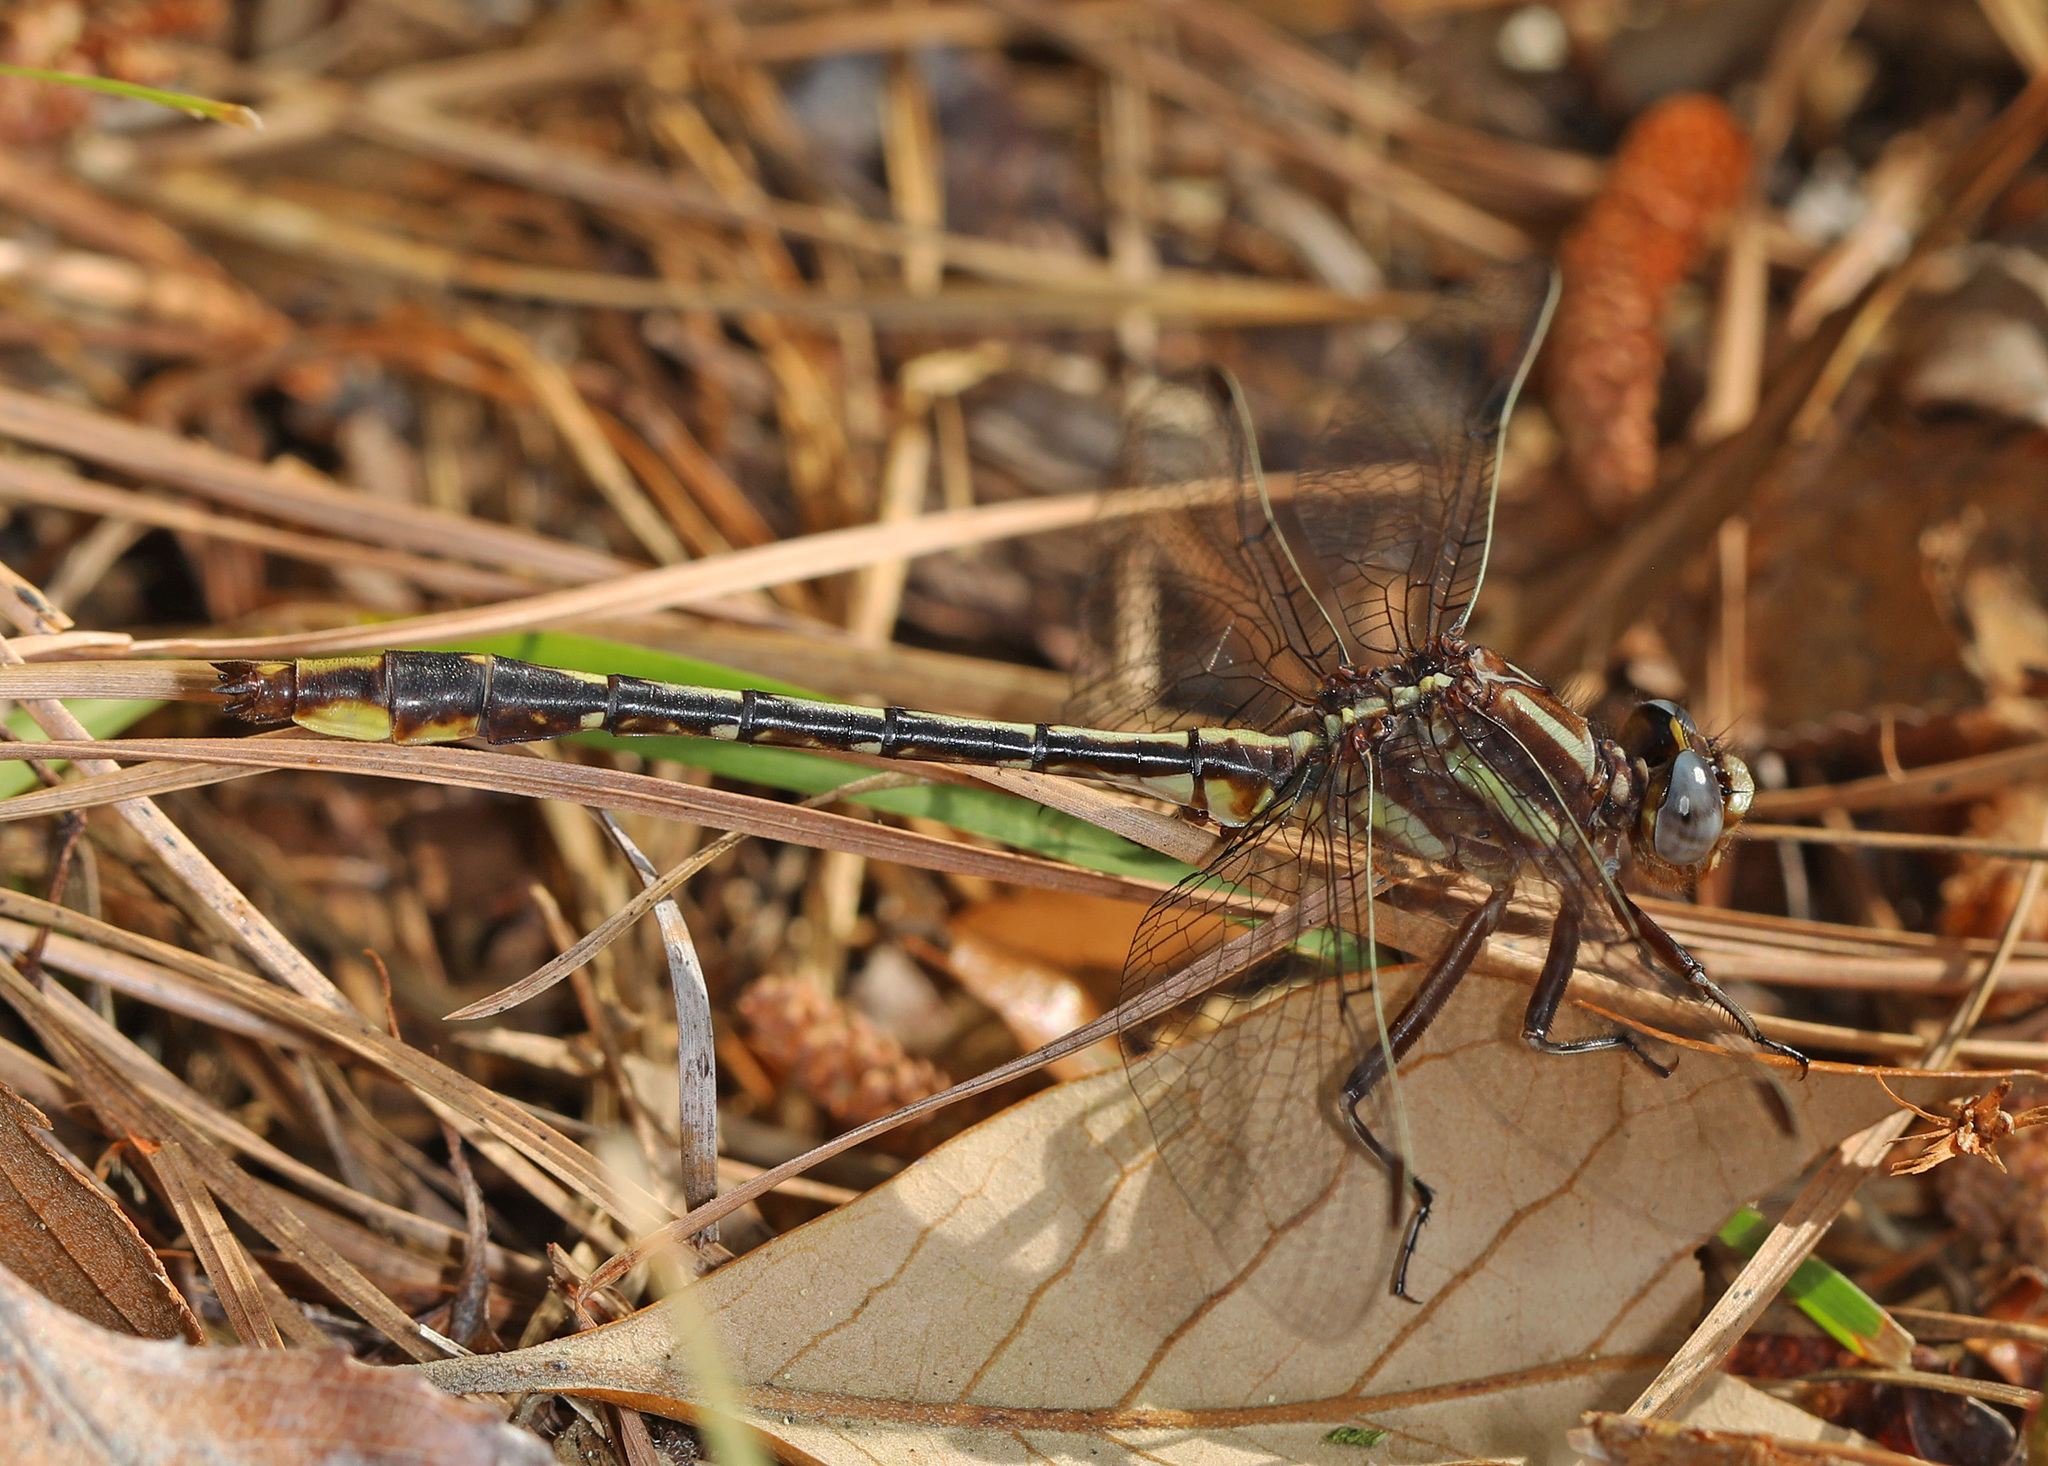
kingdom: Animalia
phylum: Arthropoda
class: Insecta
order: Odonata
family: Gomphidae
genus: Phanogomphus
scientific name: Phanogomphus exilis
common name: Lancet clubtail
